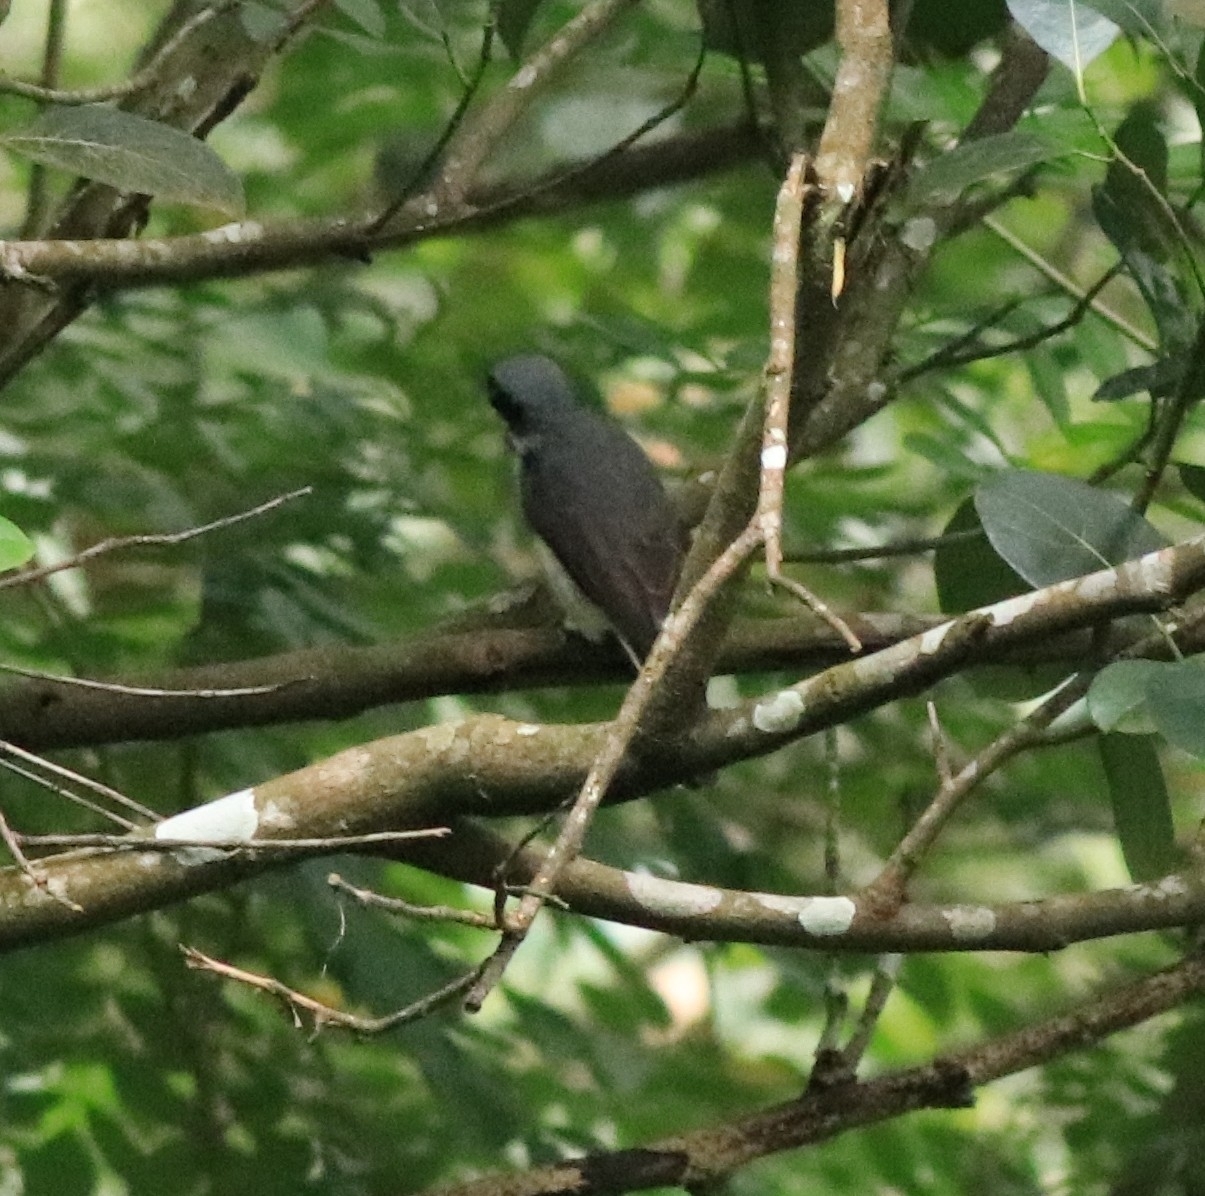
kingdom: Animalia
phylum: Chordata
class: Aves
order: Passeriformes
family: Tephrodornithidae
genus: Tephrodornis
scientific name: Tephrodornis sylvicola
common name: Malabar woodshrike
